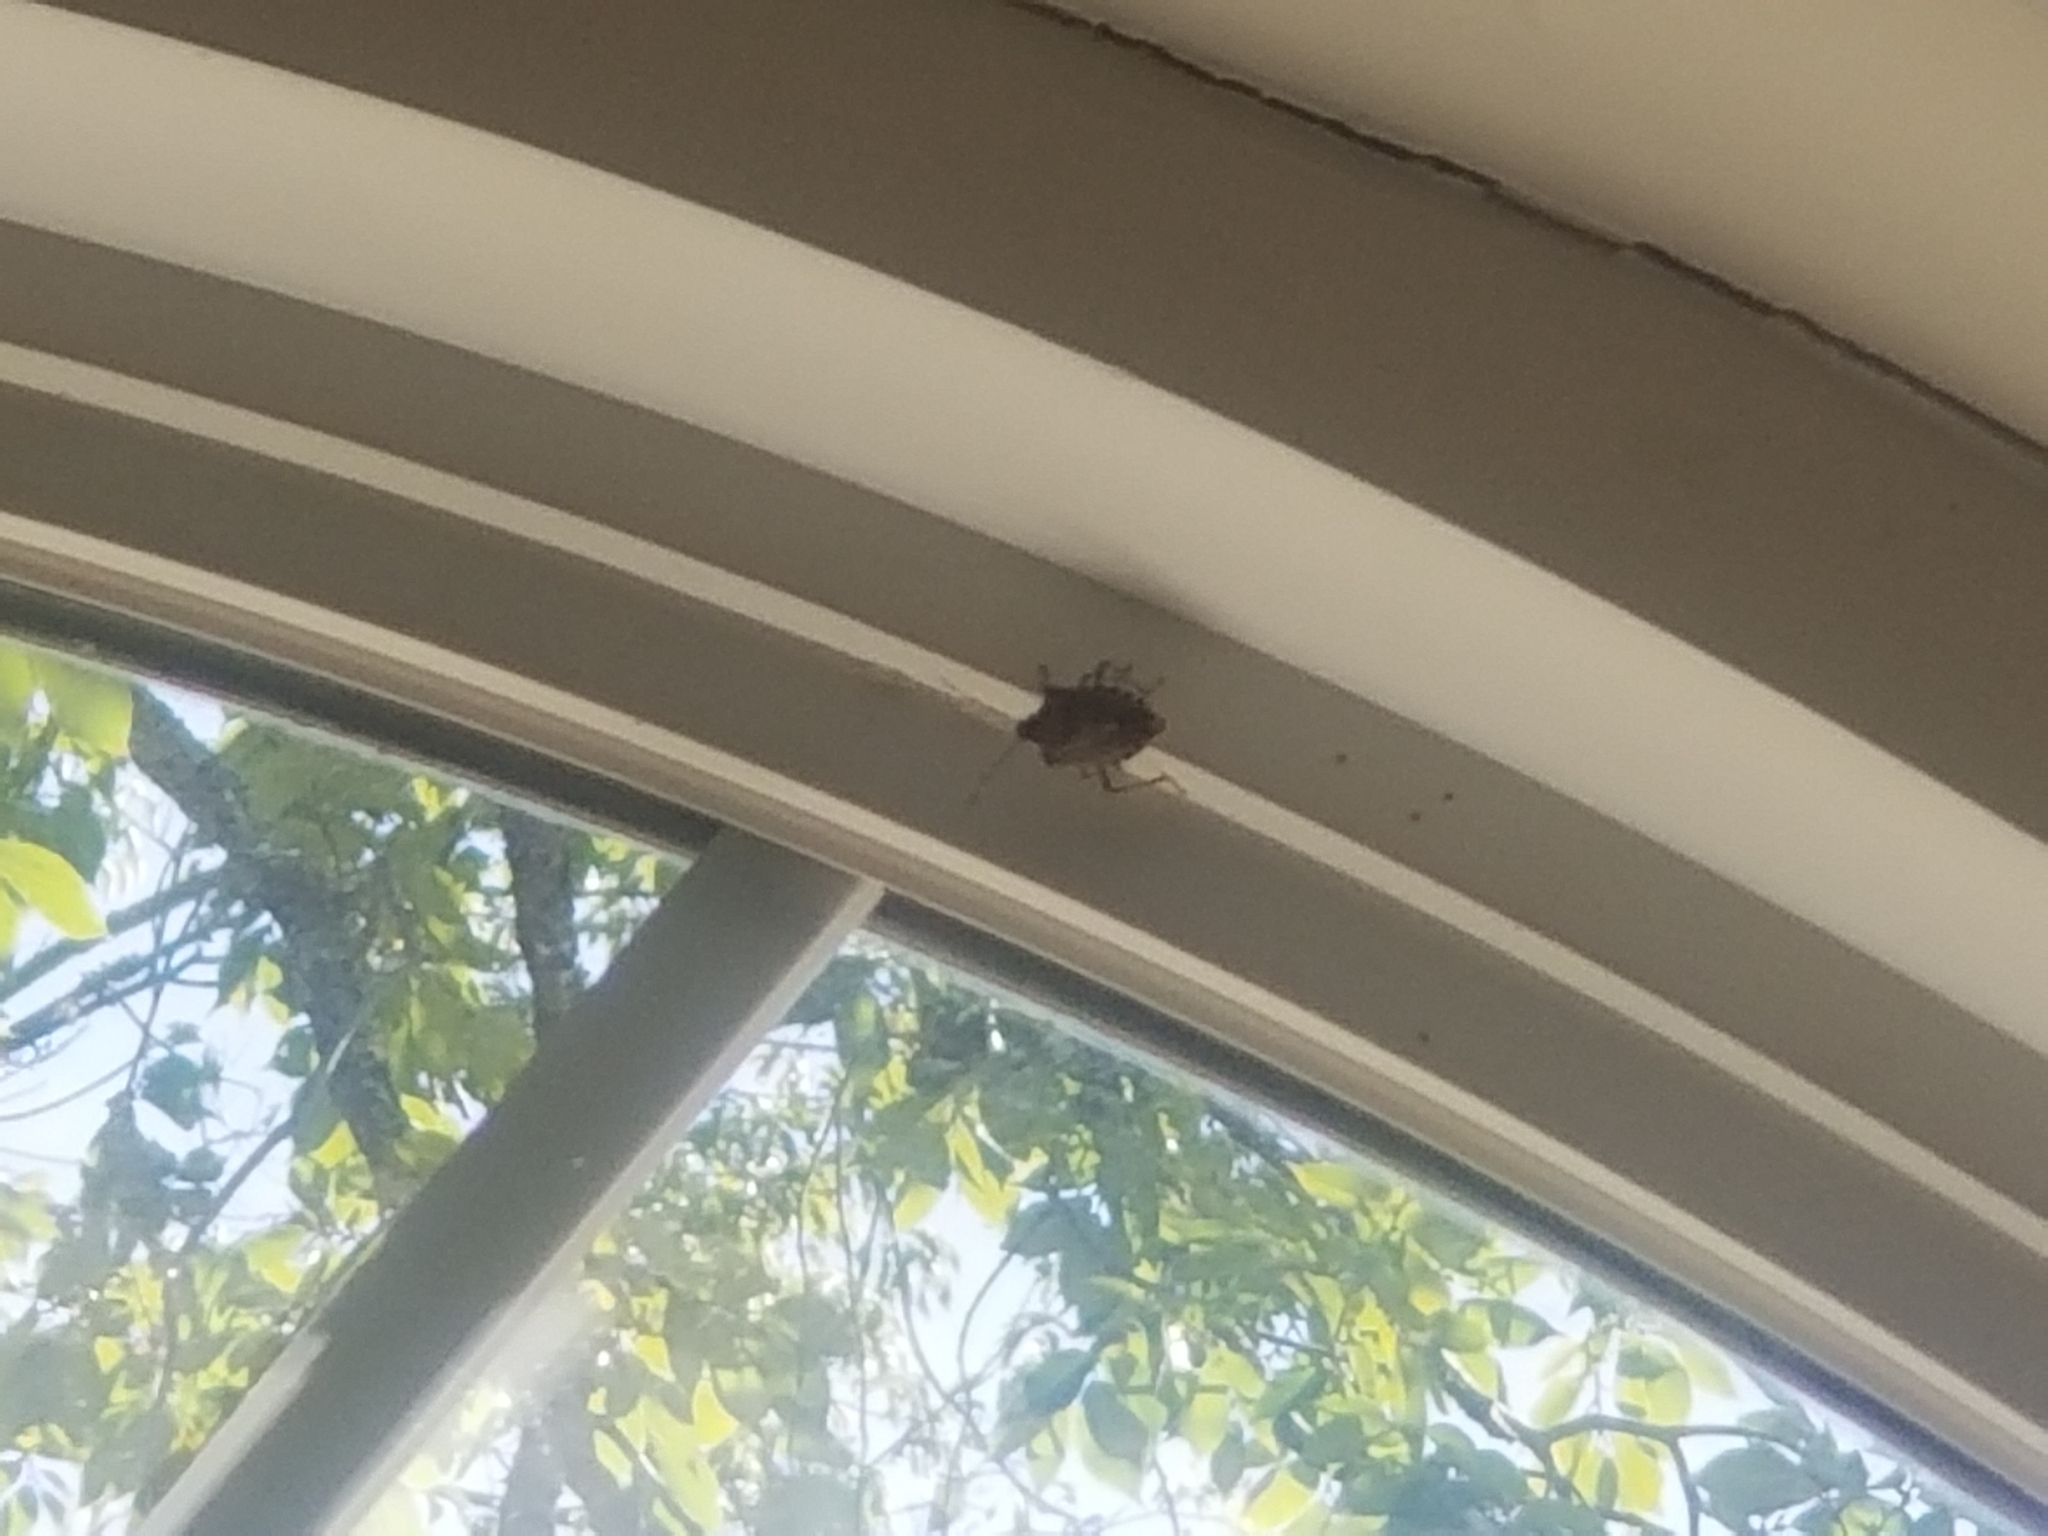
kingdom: Animalia
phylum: Arthropoda
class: Insecta
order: Hemiptera
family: Pentatomidae
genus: Halyomorpha
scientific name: Halyomorpha halys
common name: Brown marmorated stink bug
